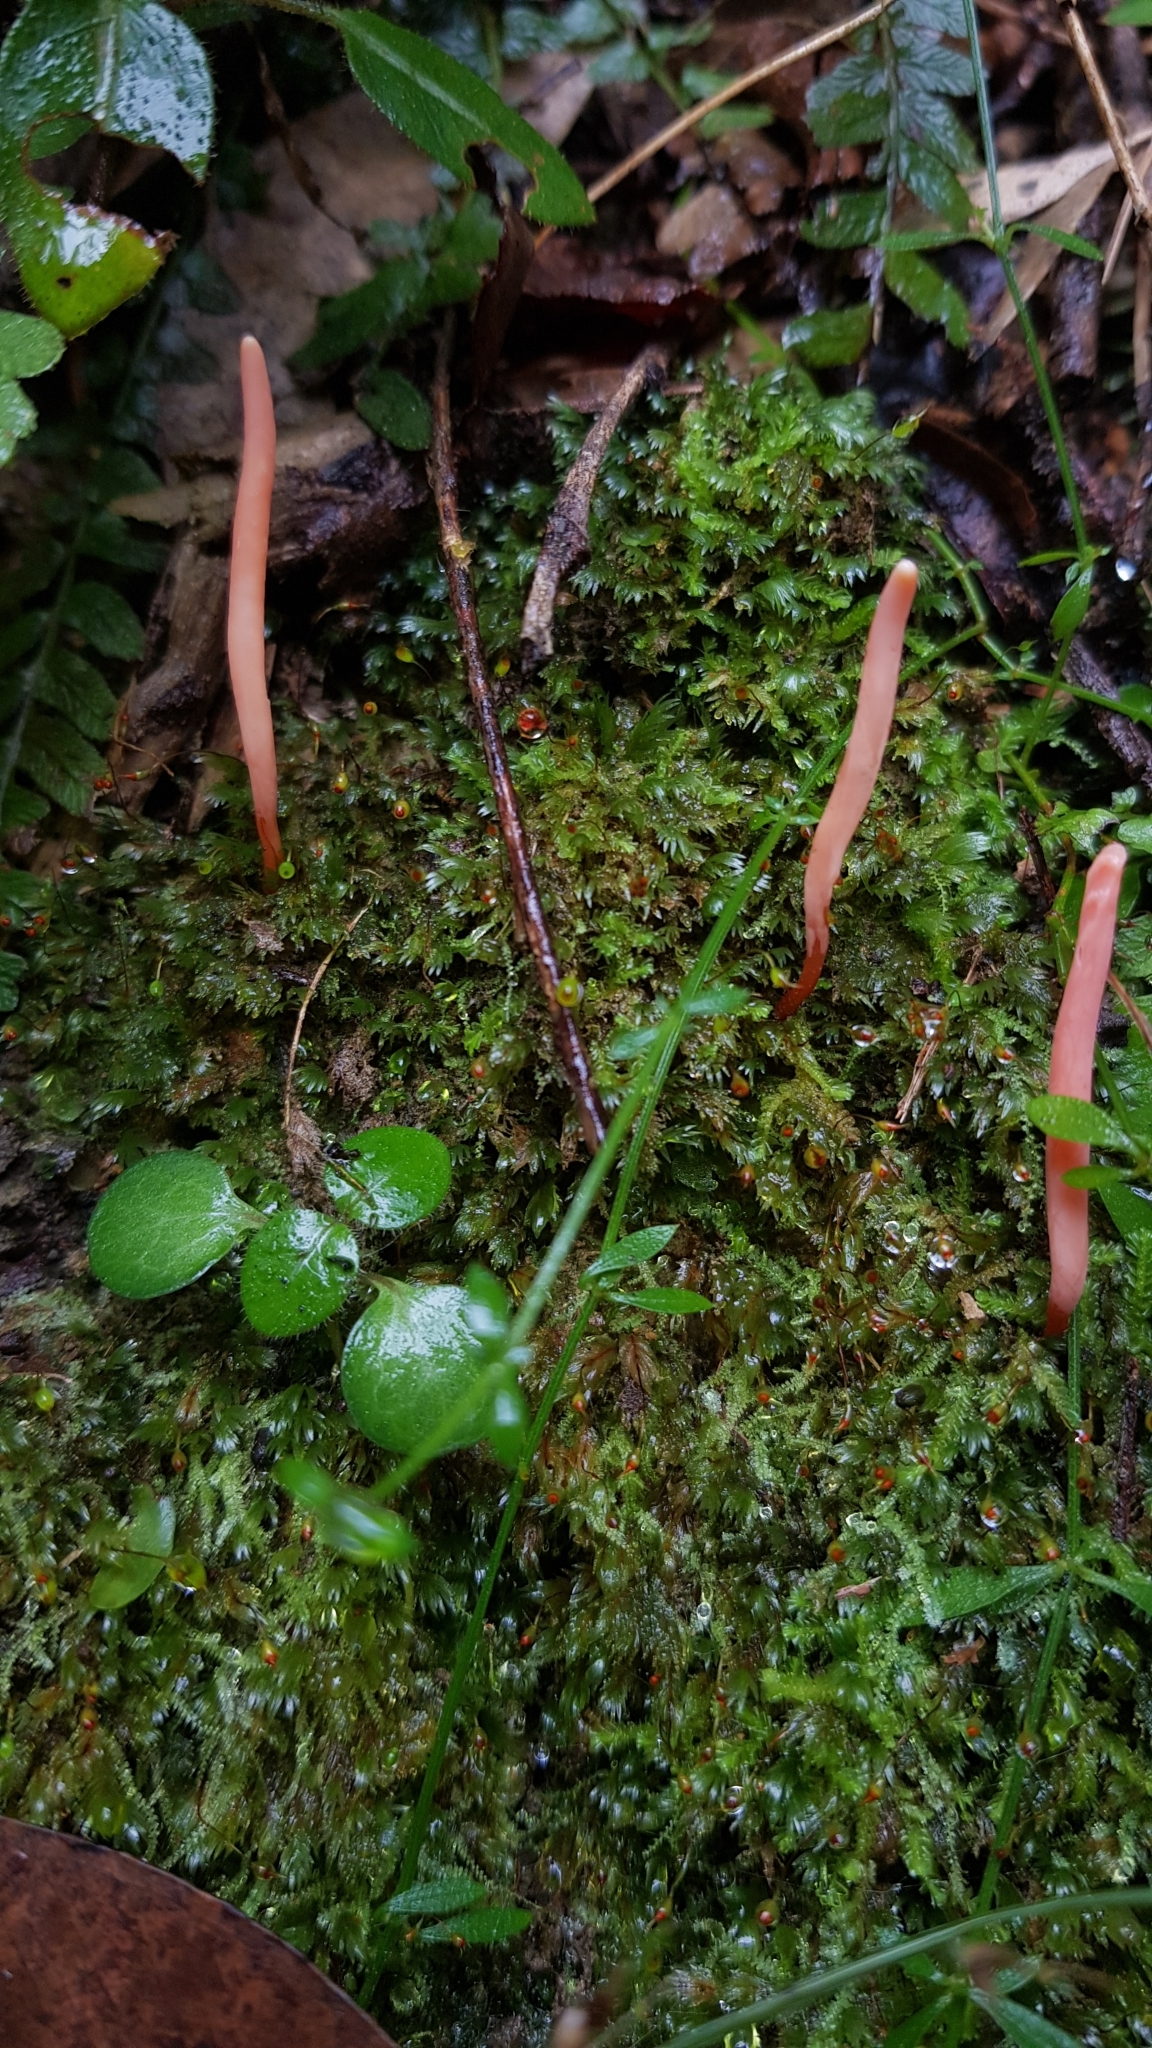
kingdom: Fungi
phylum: Basidiomycota
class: Agaricomycetes
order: Agaricales
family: Clavariaceae
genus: Clavulinopsis
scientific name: Clavulinopsis corallinorosacea
